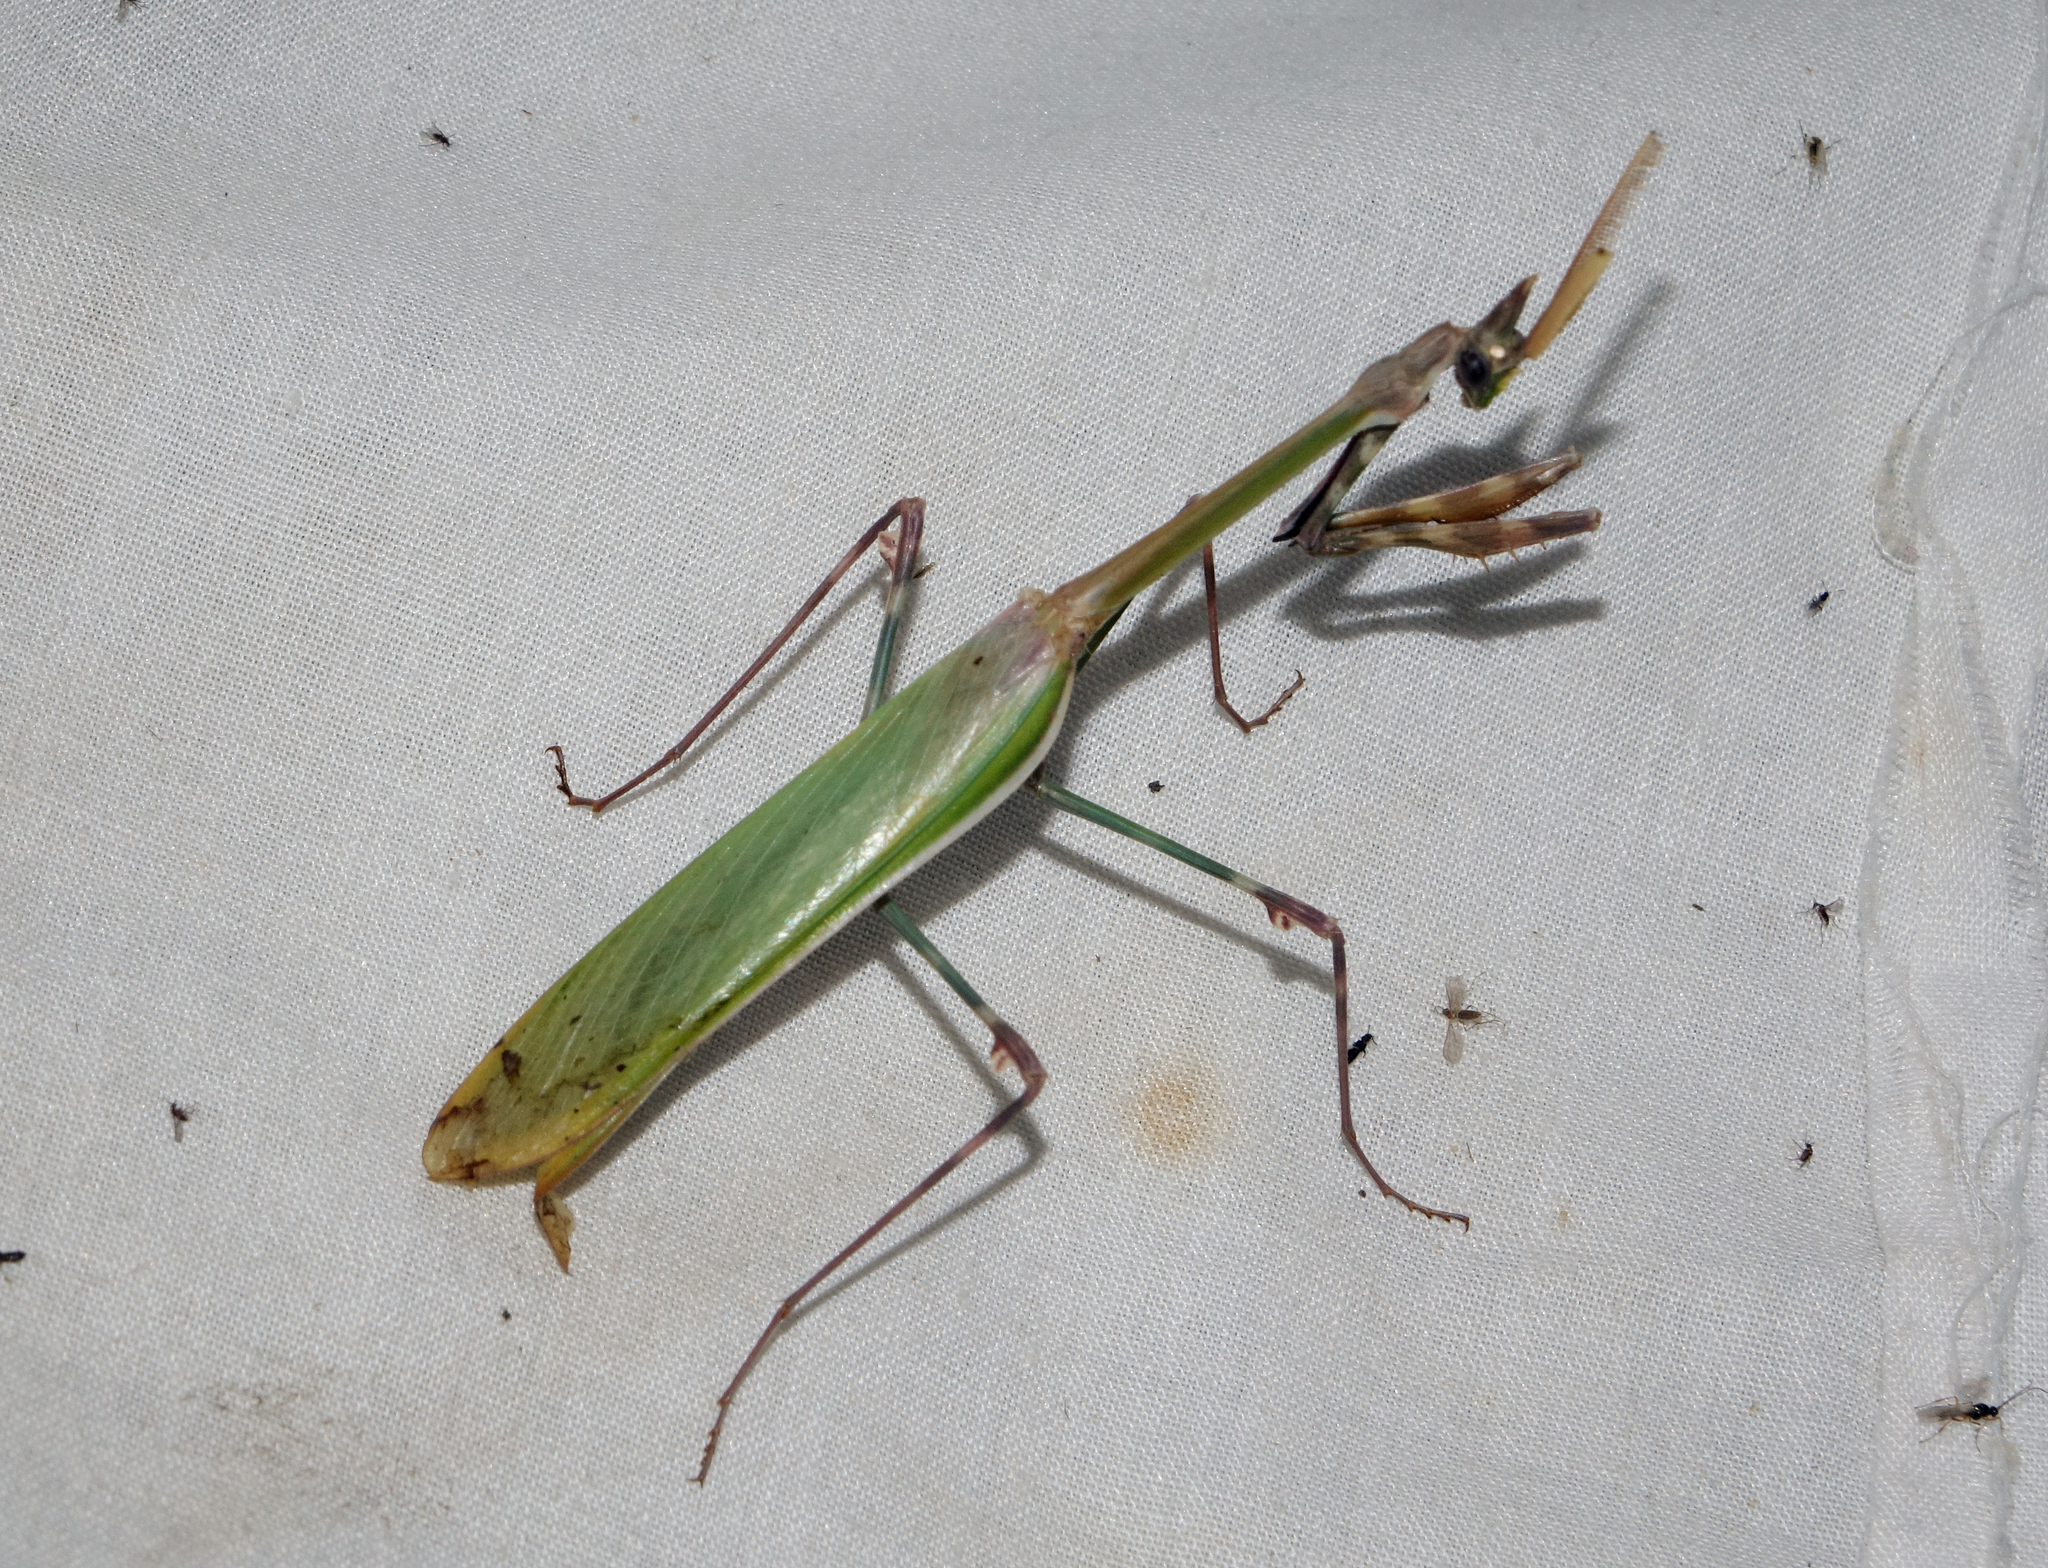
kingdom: Animalia
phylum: Arthropoda
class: Insecta
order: Mantodea
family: Empusidae
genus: Empusa
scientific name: Empusa pennicornis
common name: Conehead mantis
